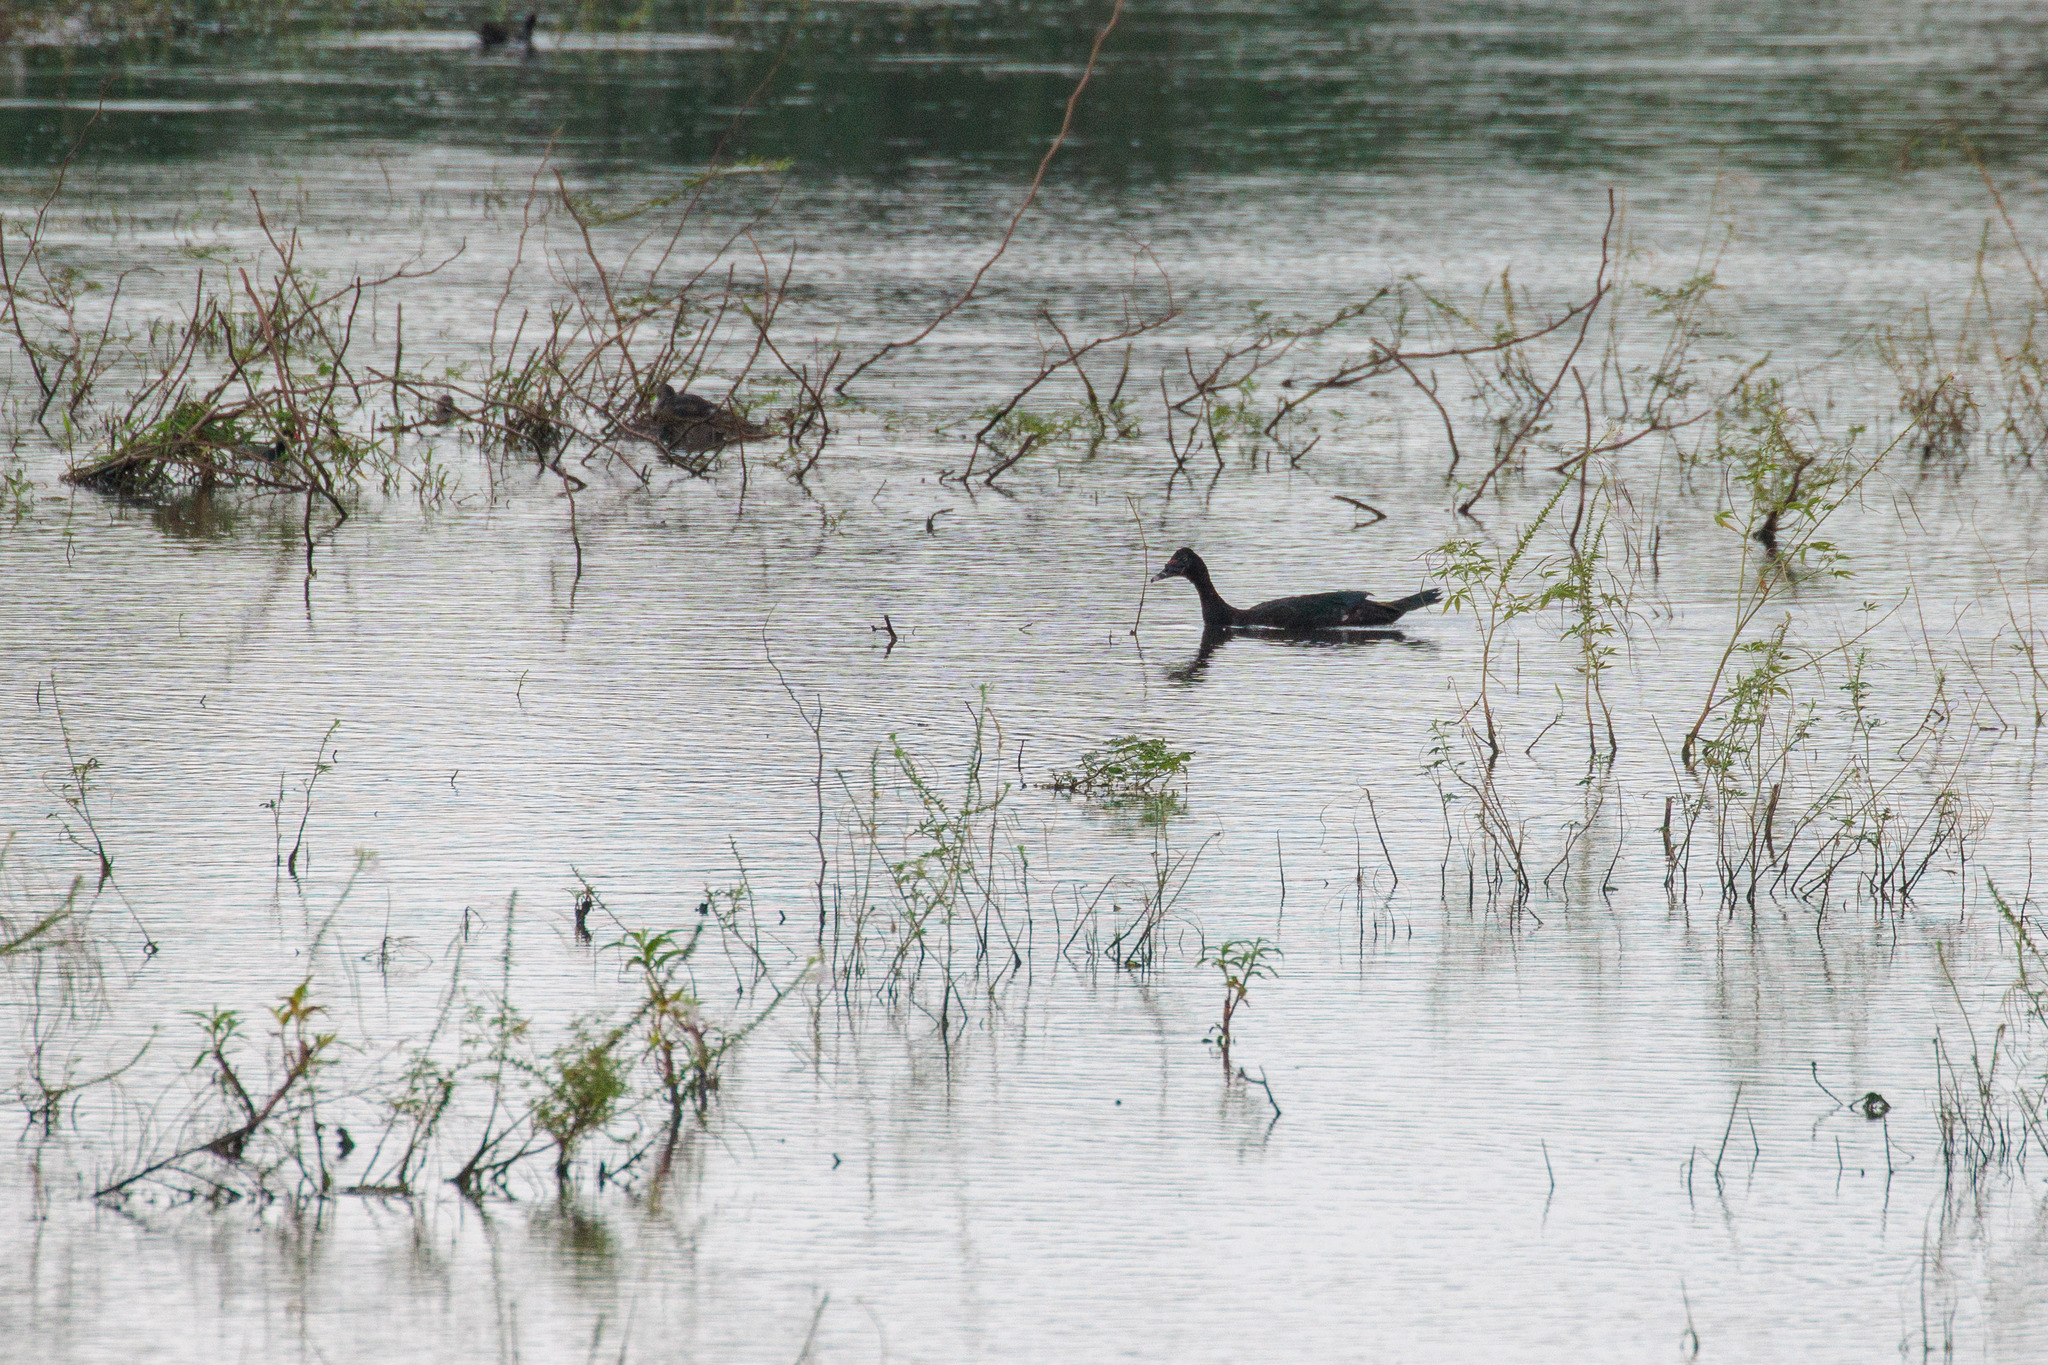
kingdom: Animalia
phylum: Chordata
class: Aves
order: Anseriformes
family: Anatidae
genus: Cairina
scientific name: Cairina moschata
